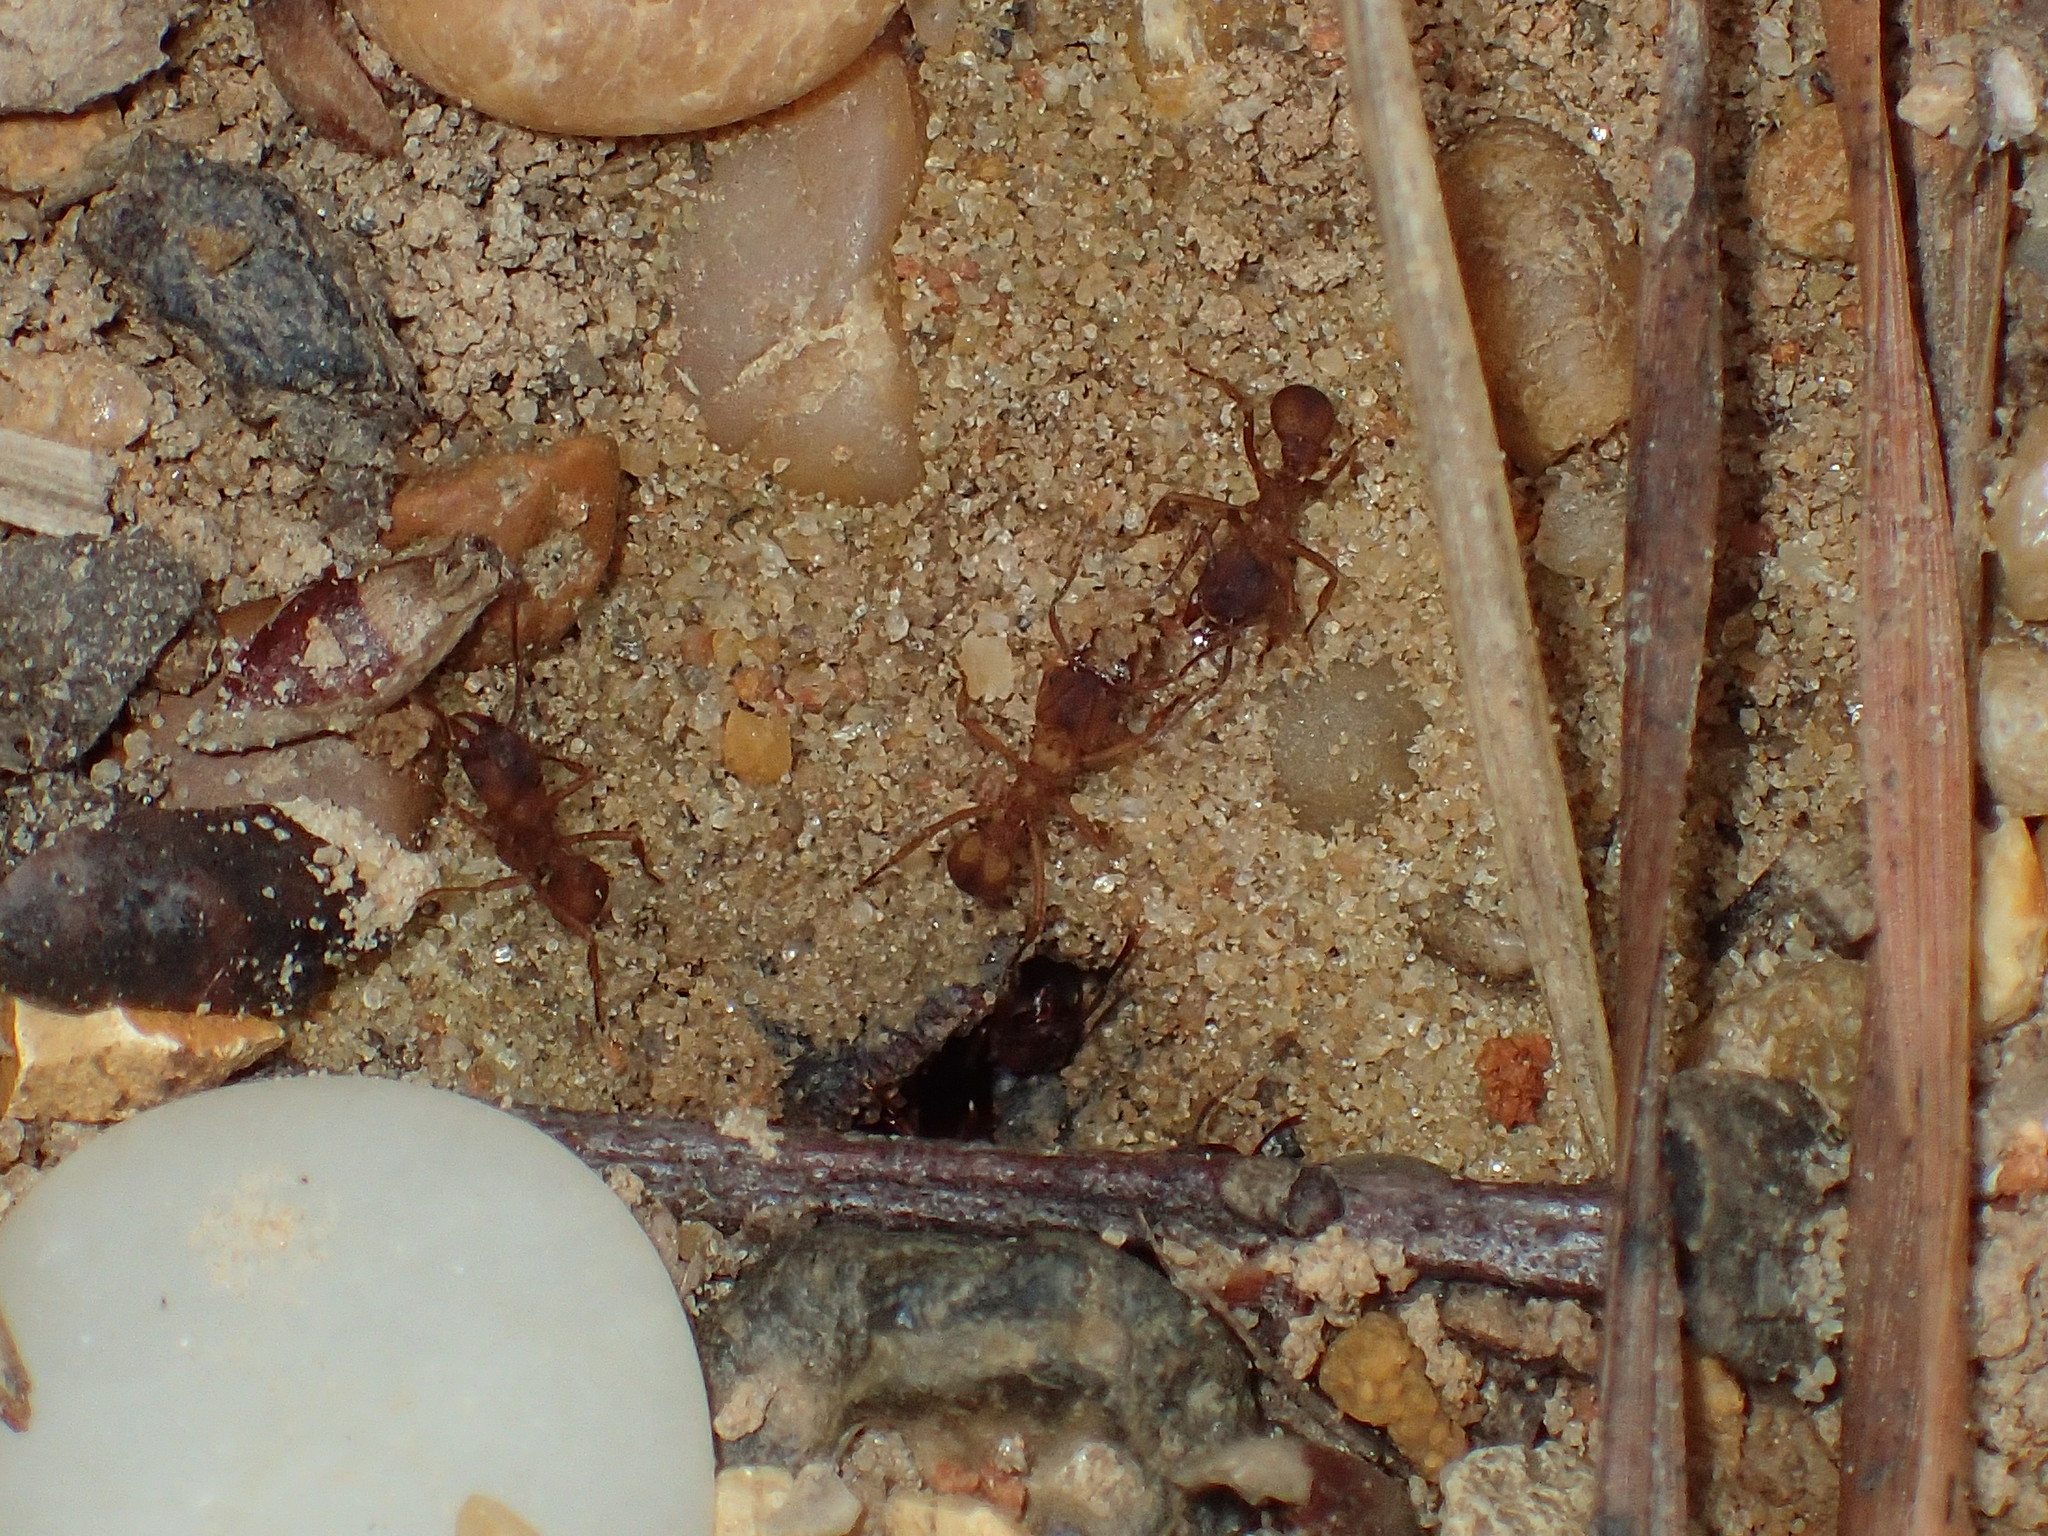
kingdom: Animalia
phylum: Arthropoda
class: Insecta
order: Hymenoptera
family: Formicidae
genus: Trachymyrmex
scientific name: Trachymyrmex septentrionalis
